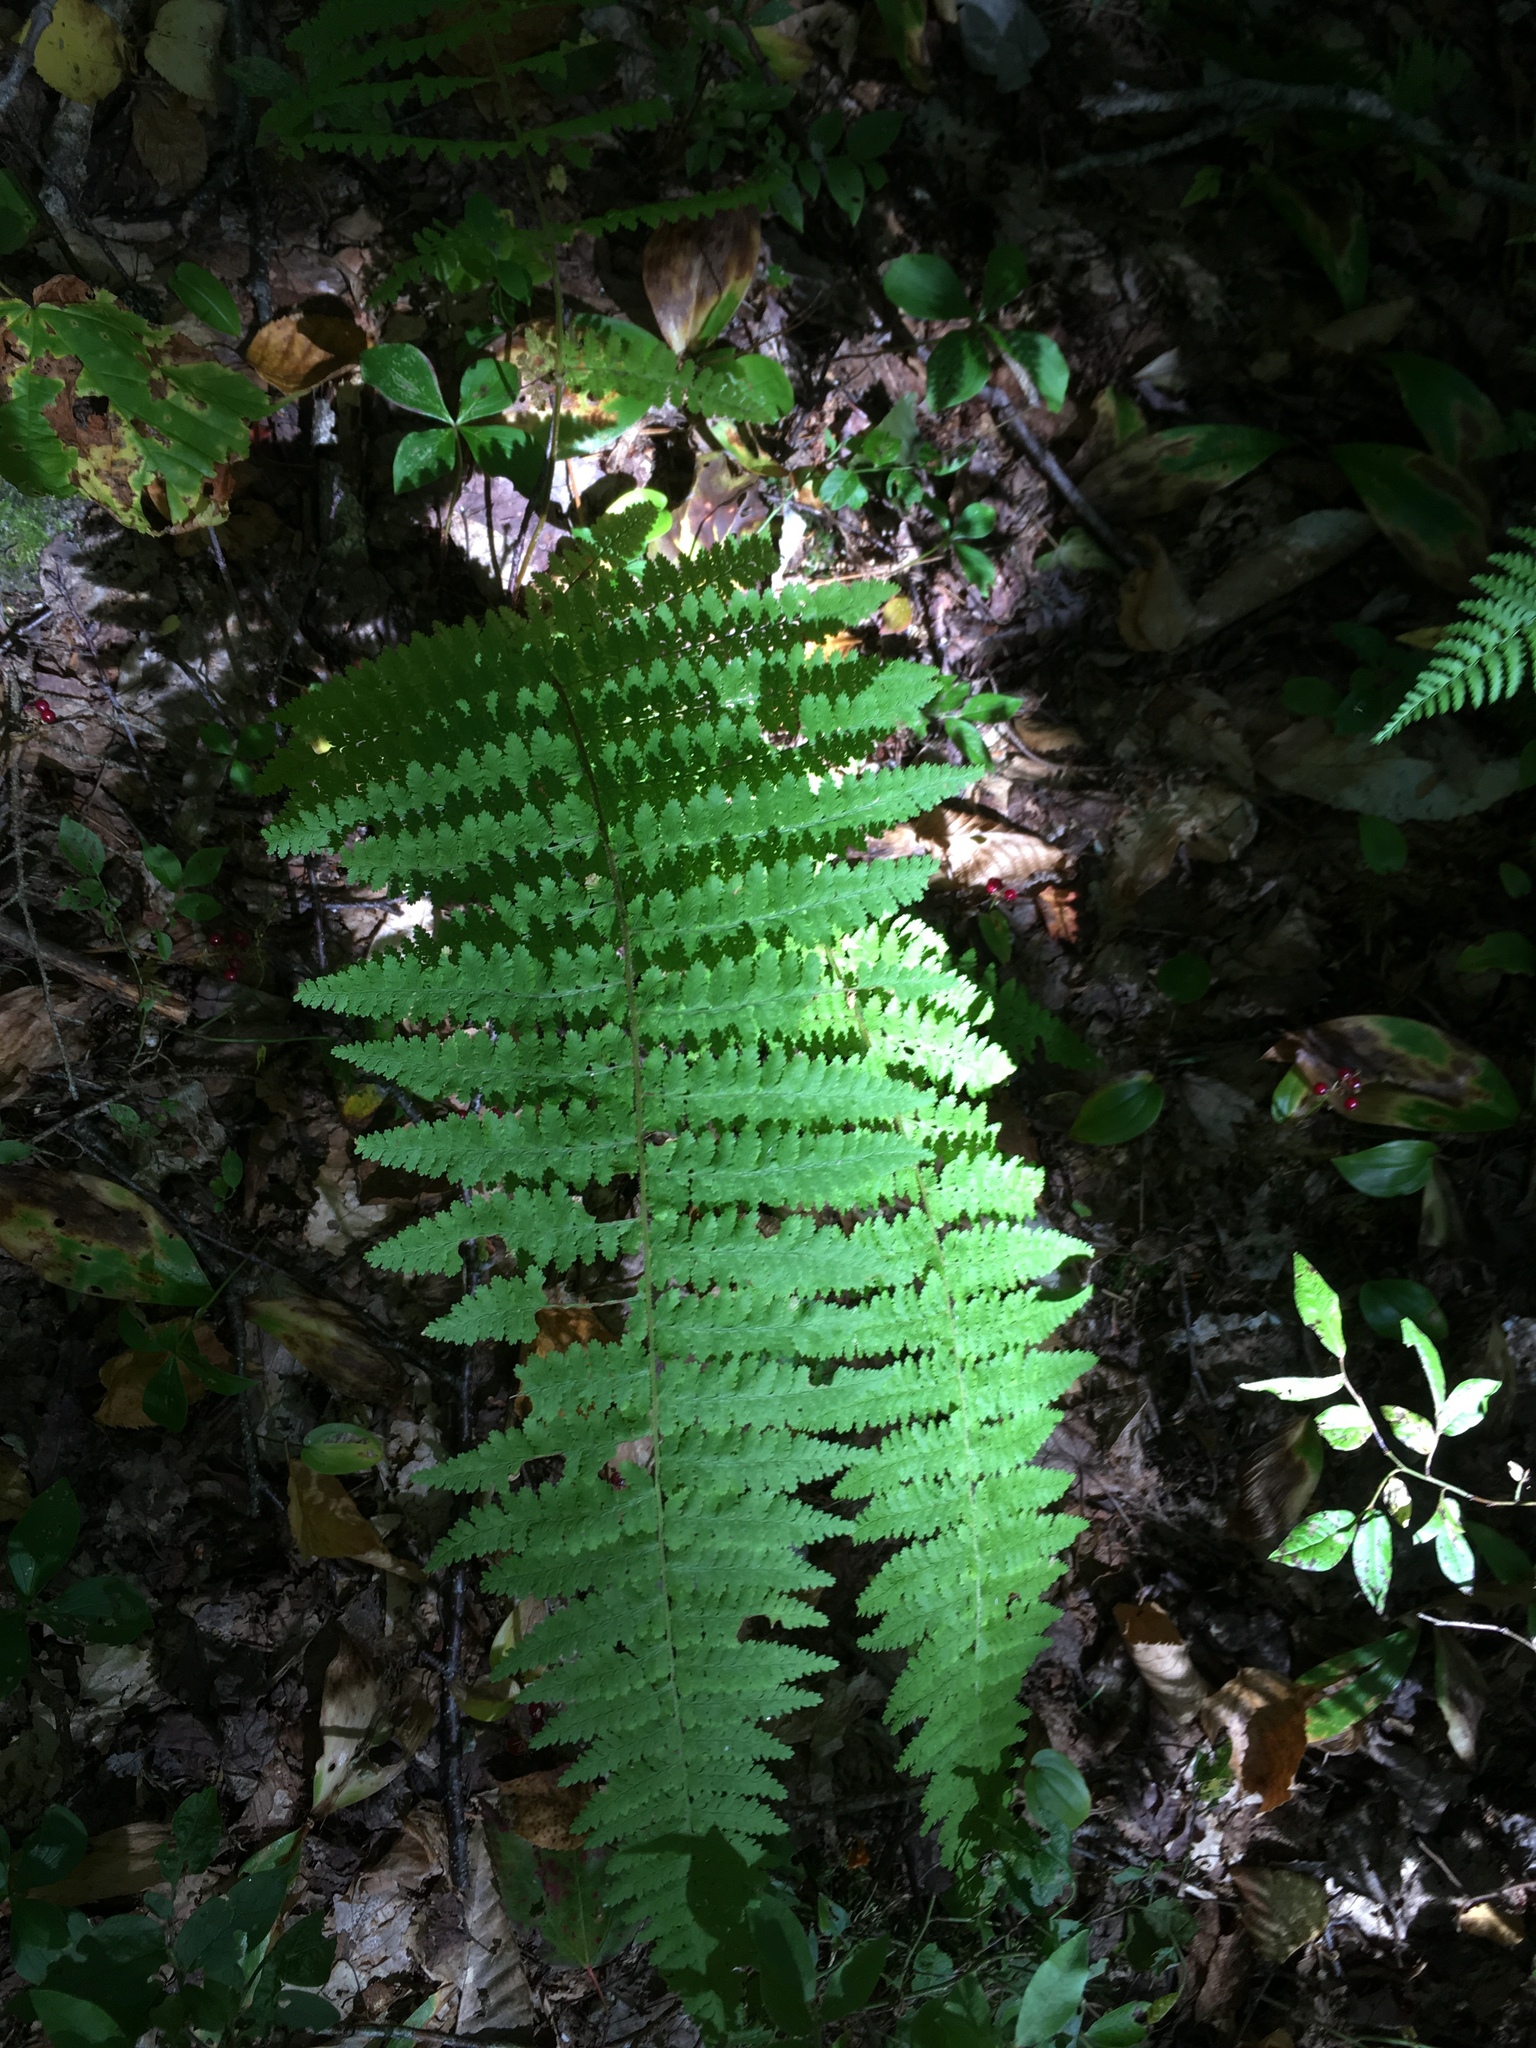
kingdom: Plantae
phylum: Tracheophyta
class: Polypodiopsida
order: Polypodiales
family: Dennstaedtiaceae
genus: Sitobolium
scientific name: Sitobolium punctilobum
